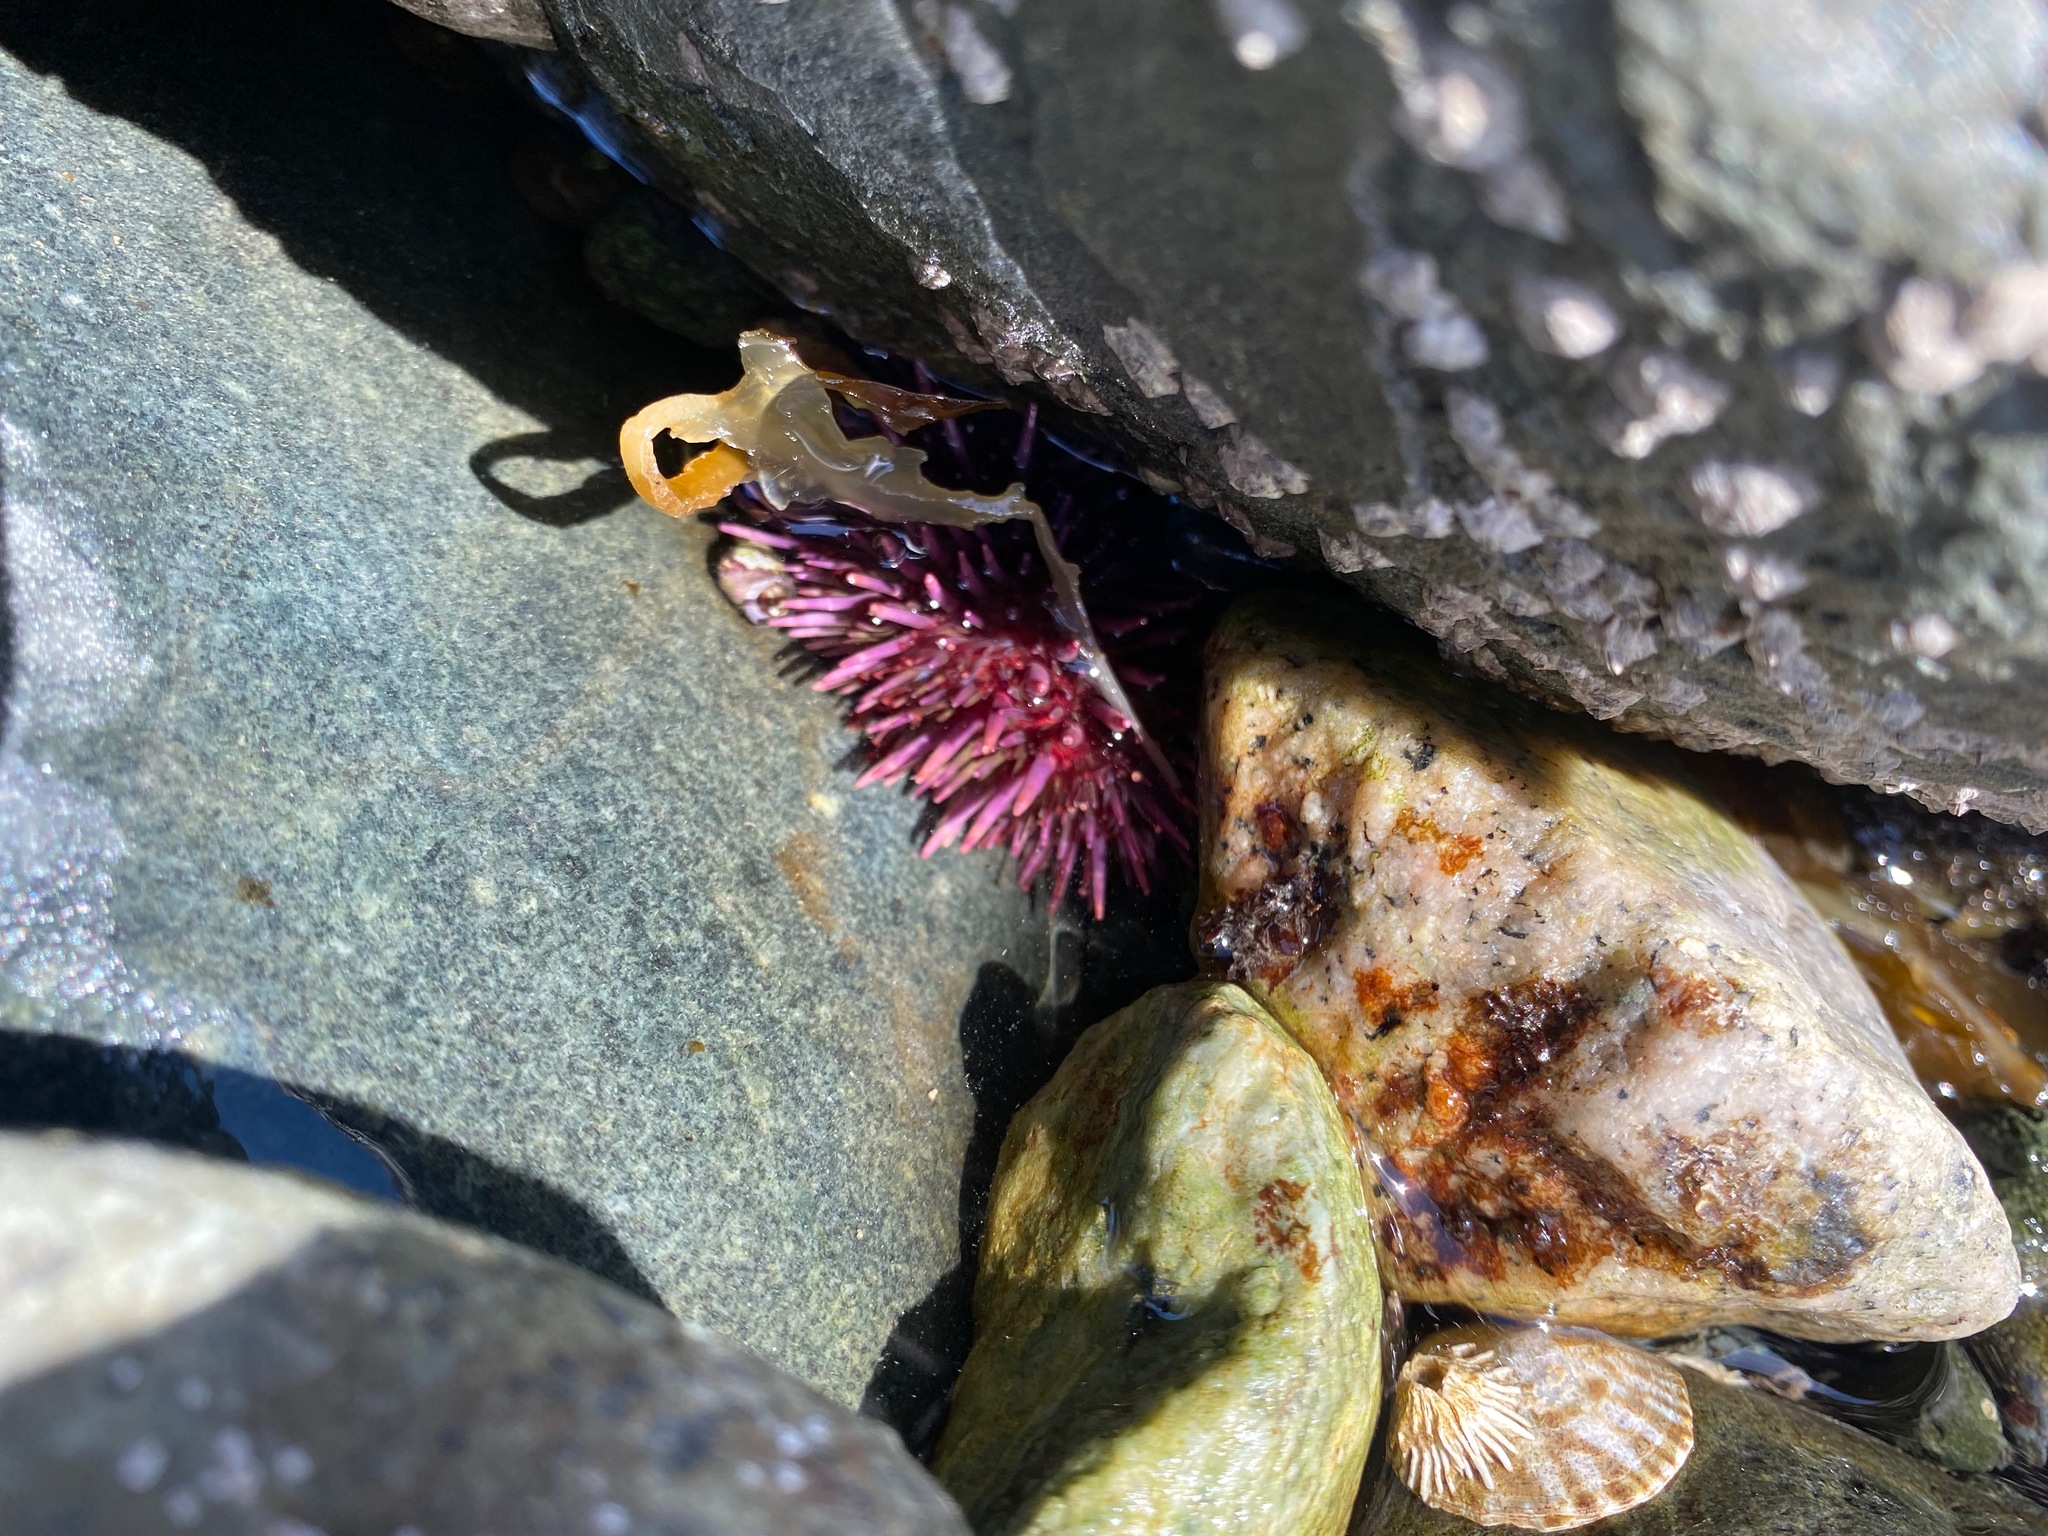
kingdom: Animalia
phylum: Echinodermata
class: Echinoidea
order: Camarodonta
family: Strongylocentrotidae
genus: Strongylocentrotus
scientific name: Strongylocentrotus purpuratus
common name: Purple sea urchin
